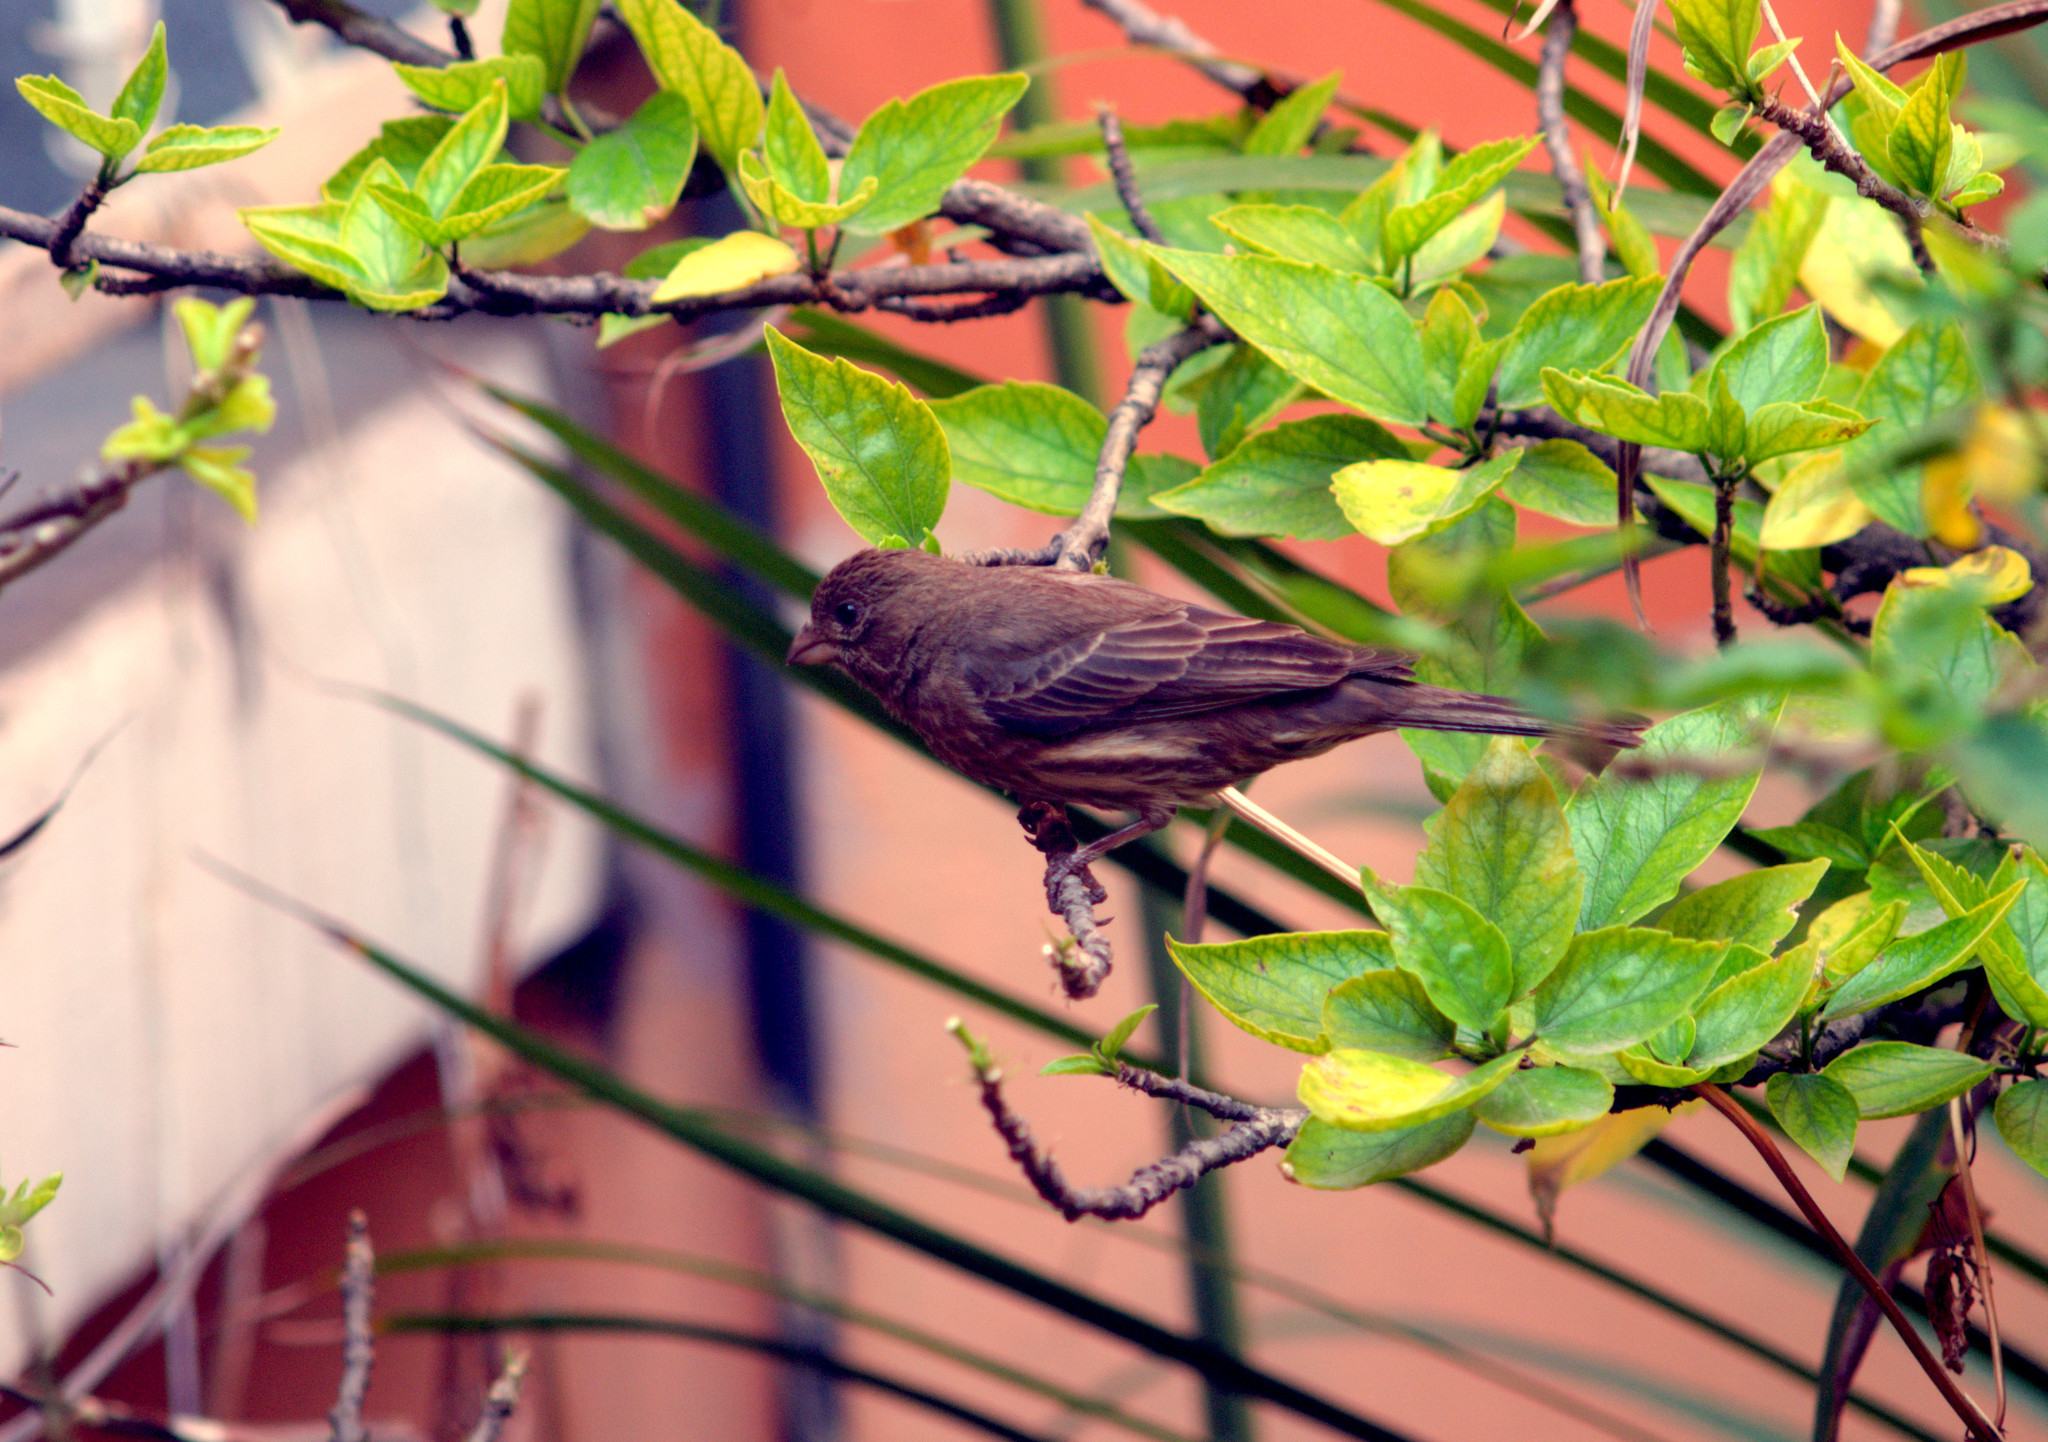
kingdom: Animalia
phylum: Chordata
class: Aves
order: Passeriformes
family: Fringillidae
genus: Haemorhous
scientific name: Haemorhous mexicanus
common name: House finch
